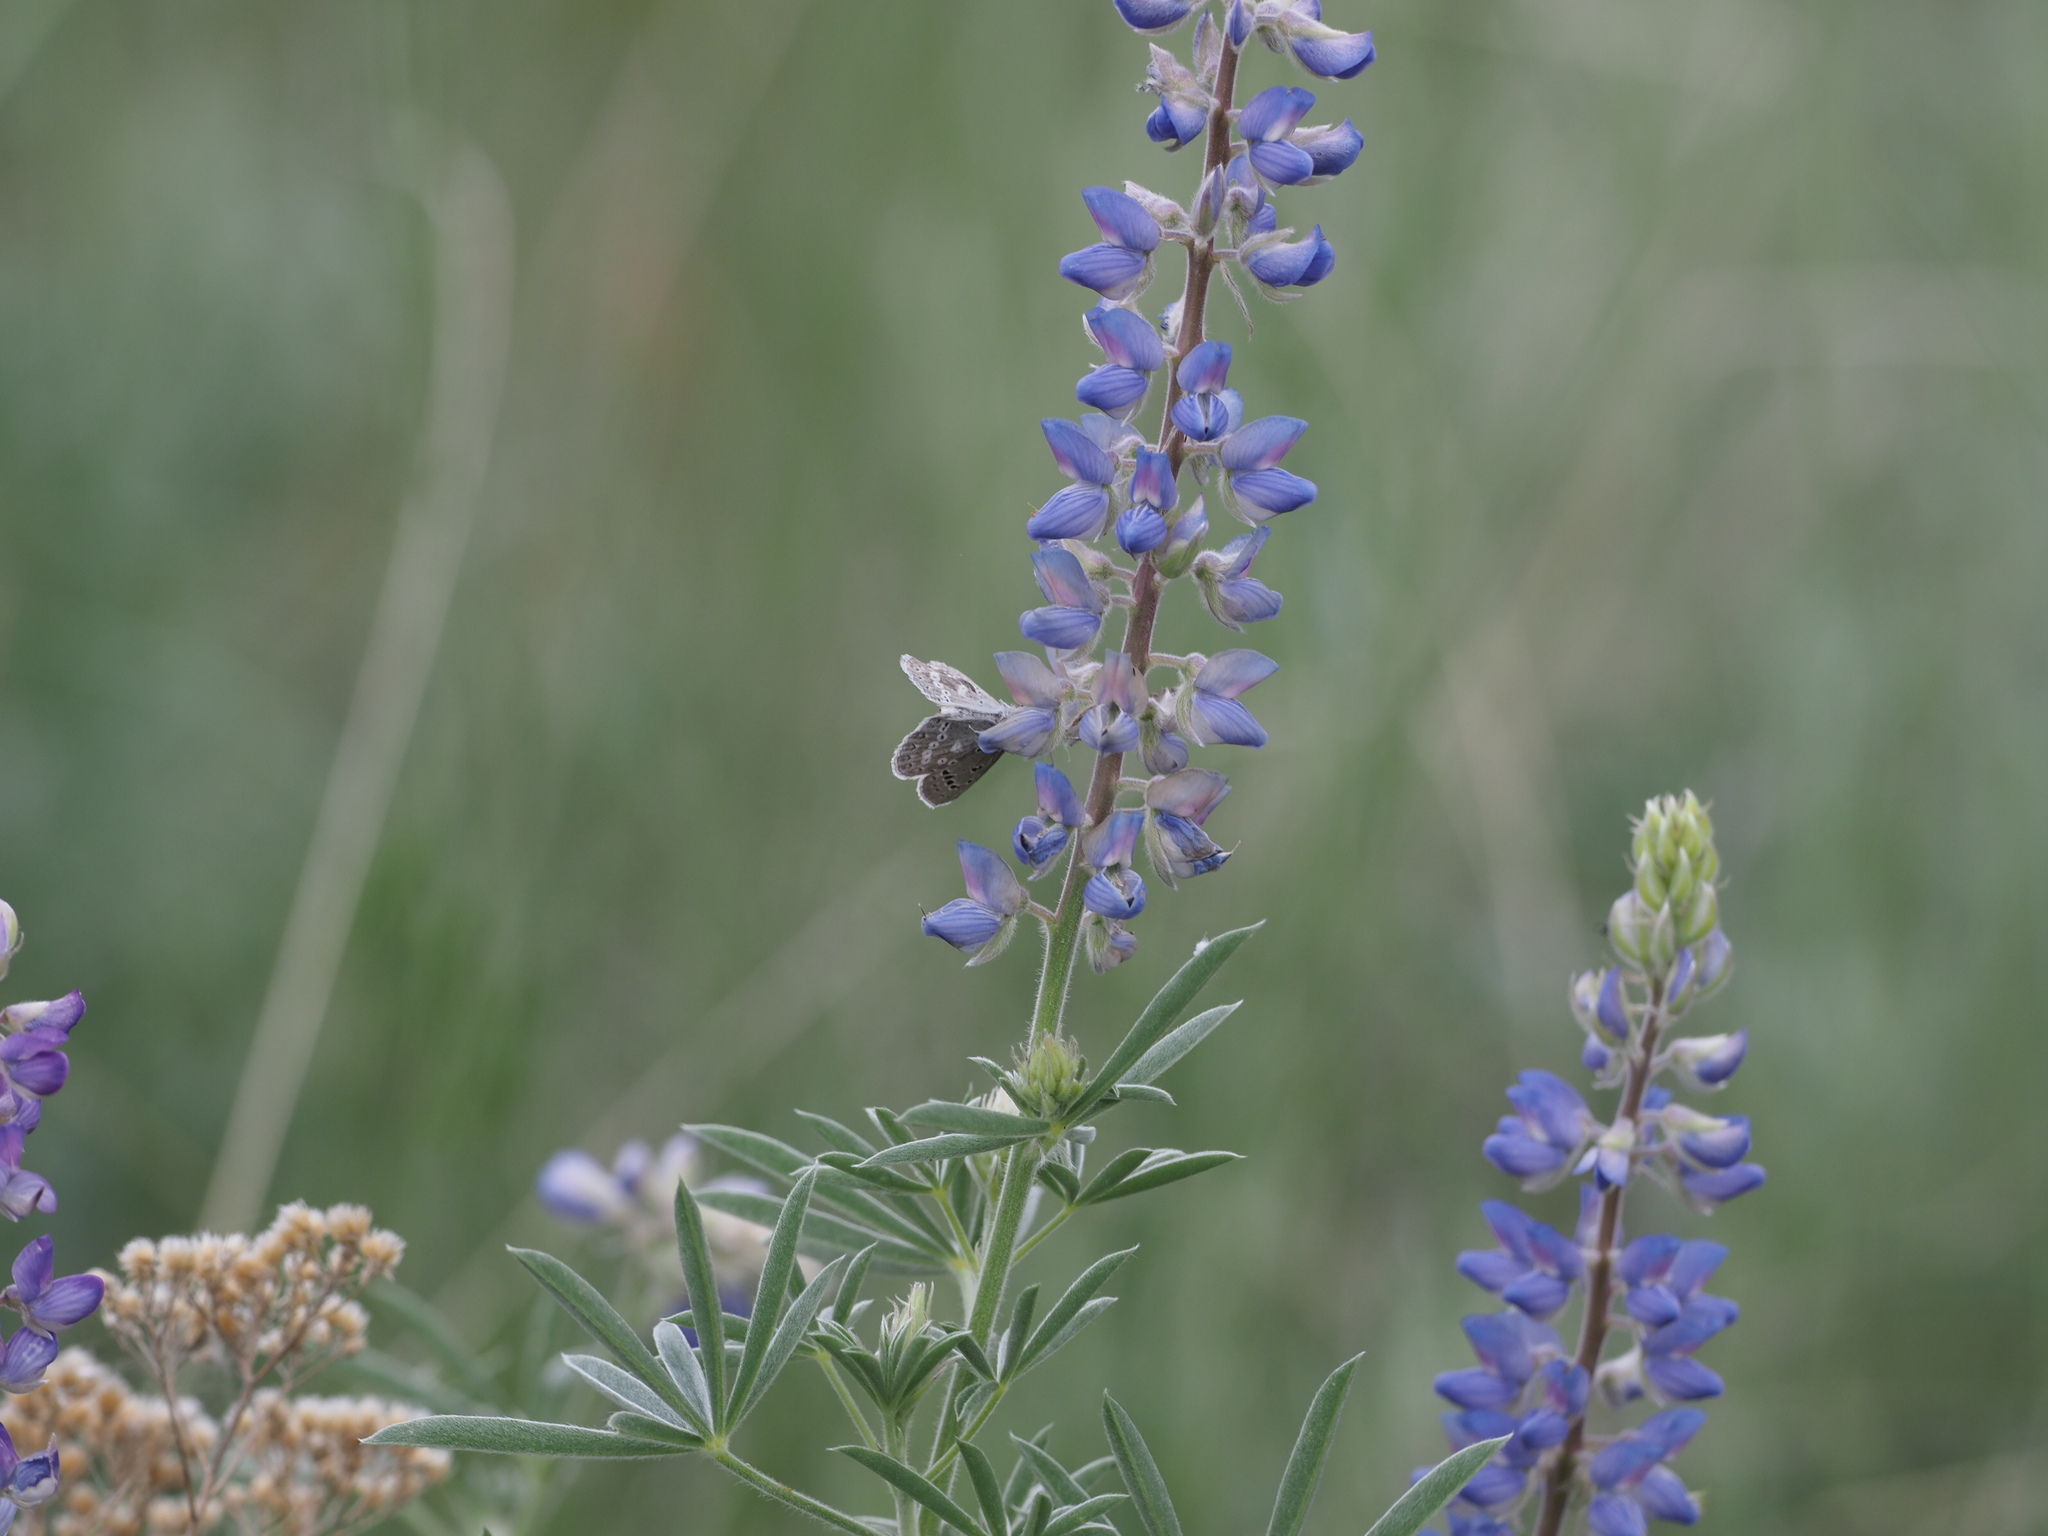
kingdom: Animalia
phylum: Arthropoda
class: Insecta
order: Lepidoptera
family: Lycaenidae
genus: Icaricia
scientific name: Icaricia icarioides
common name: Boisduval's blue
